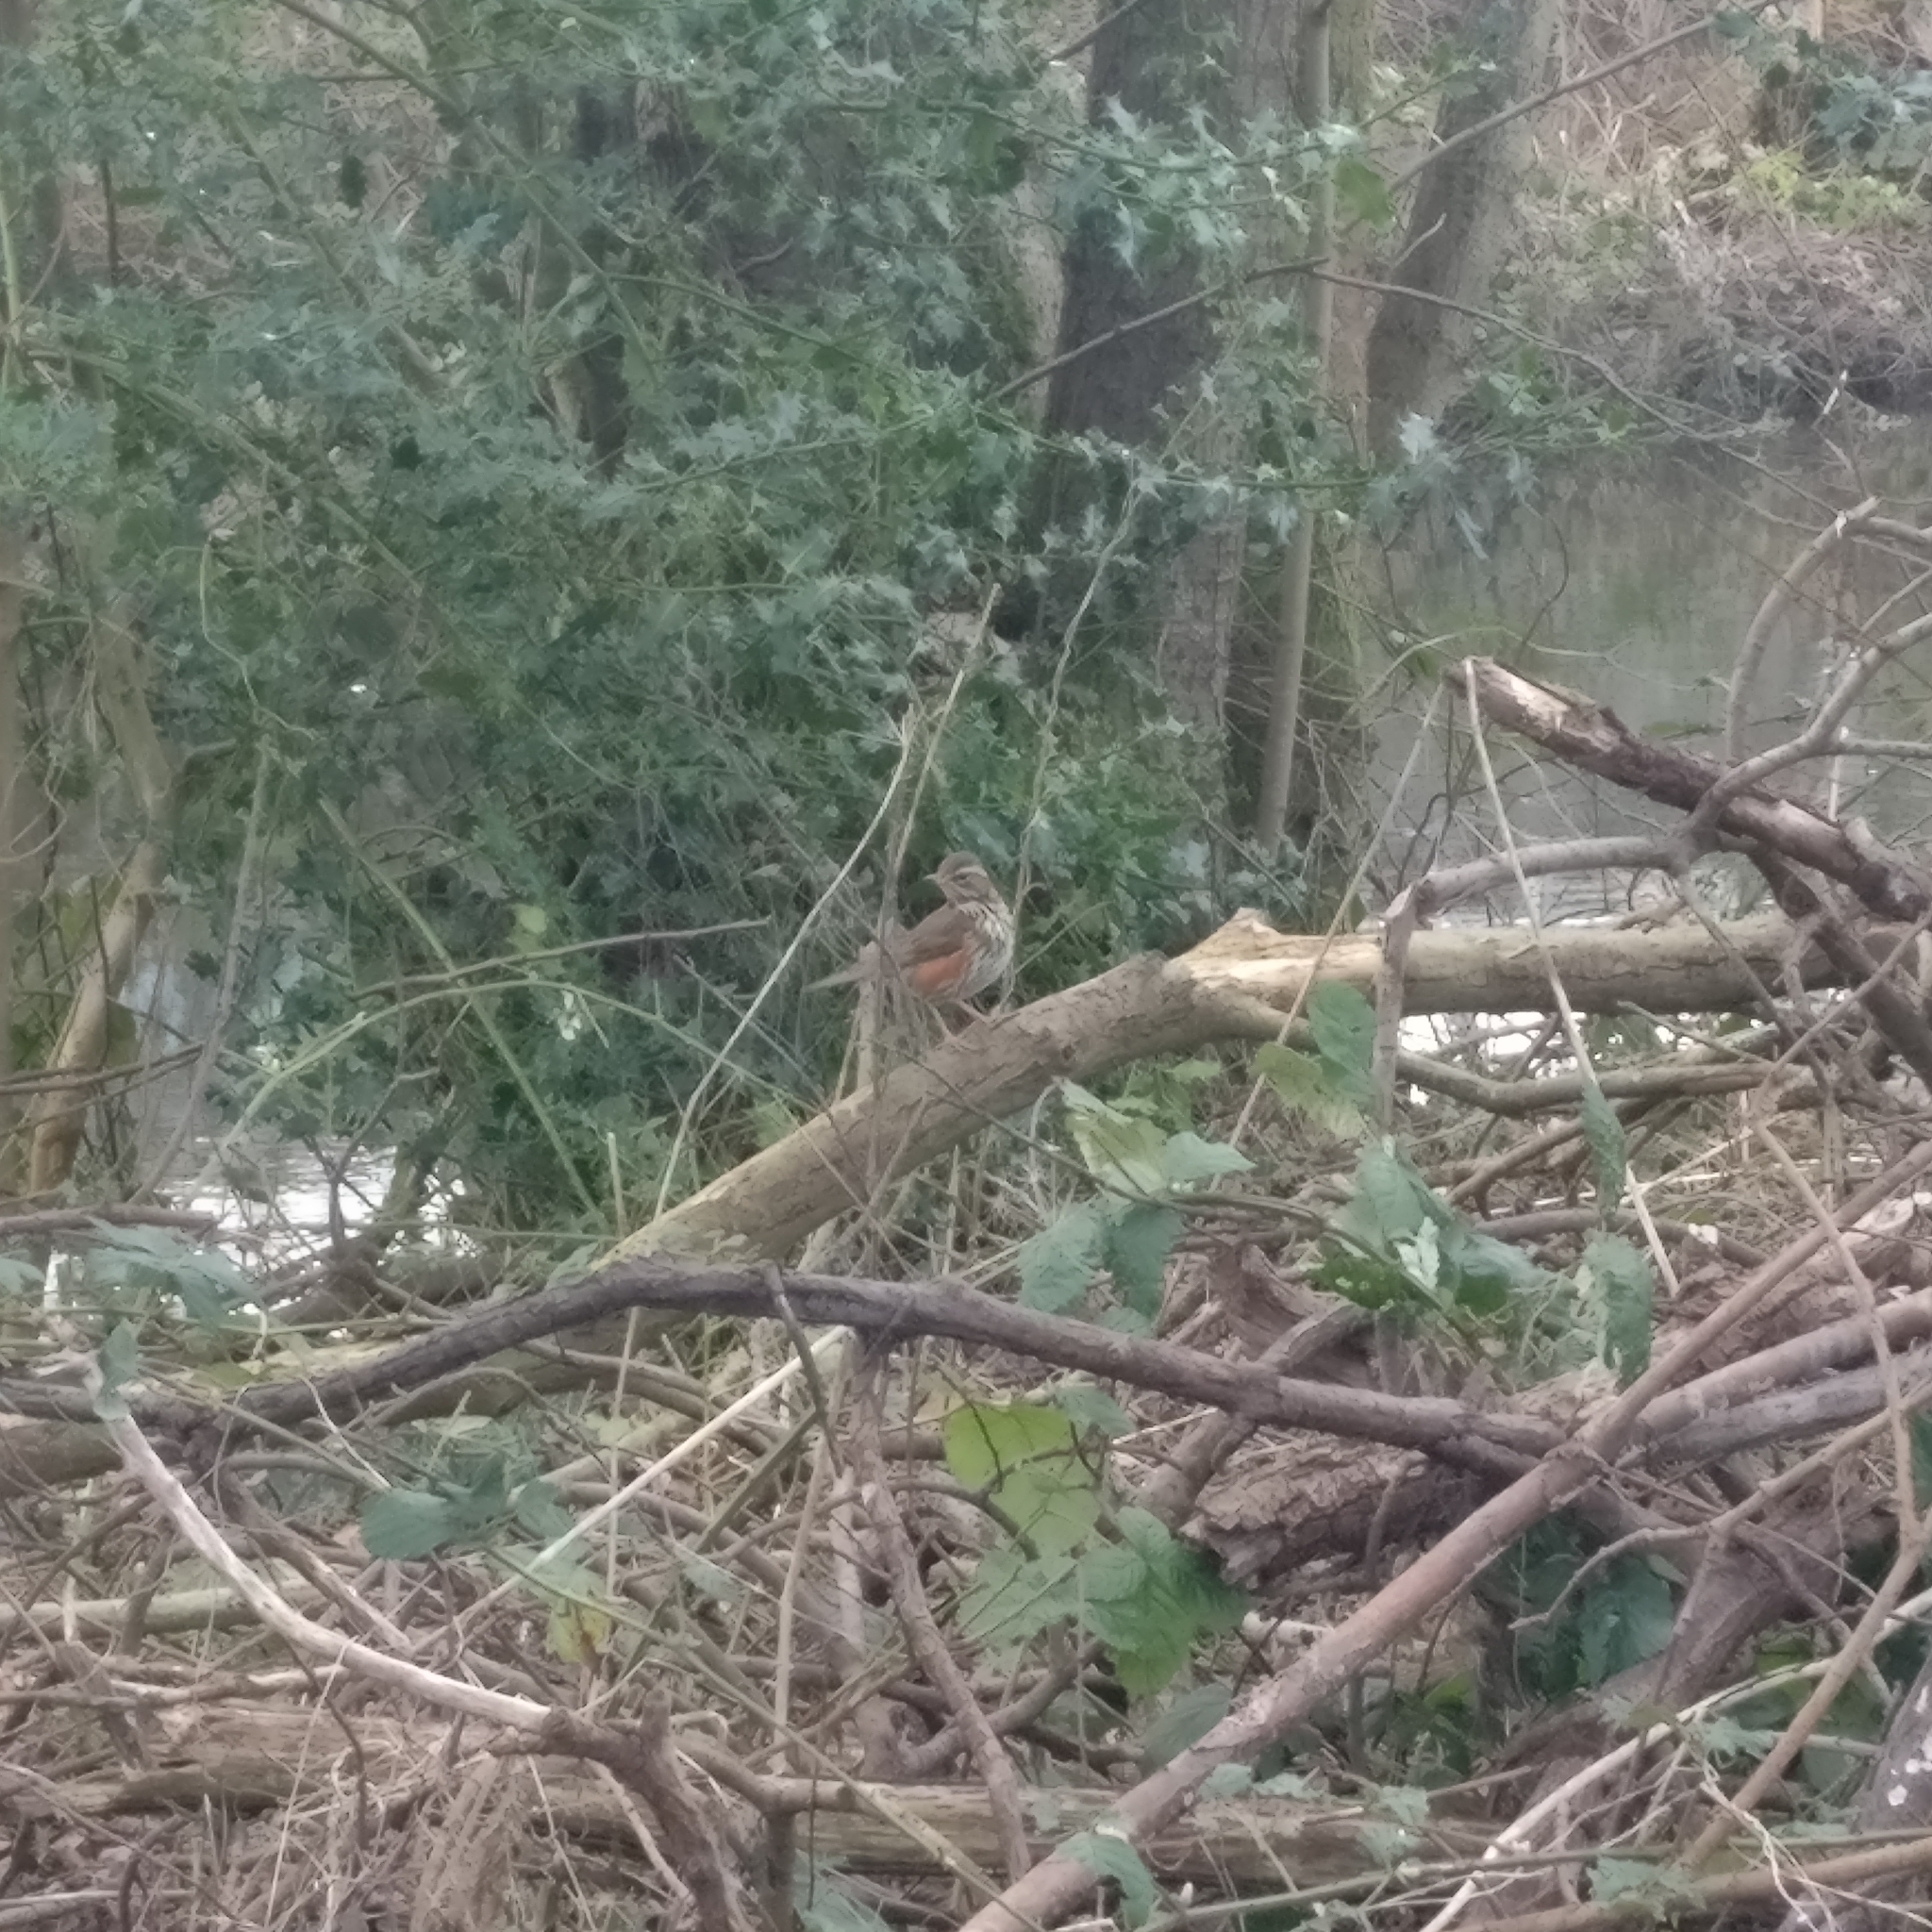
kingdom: Animalia
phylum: Chordata
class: Aves
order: Passeriformes
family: Turdidae
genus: Turdus
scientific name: Turdus iliacus
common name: Redwing
